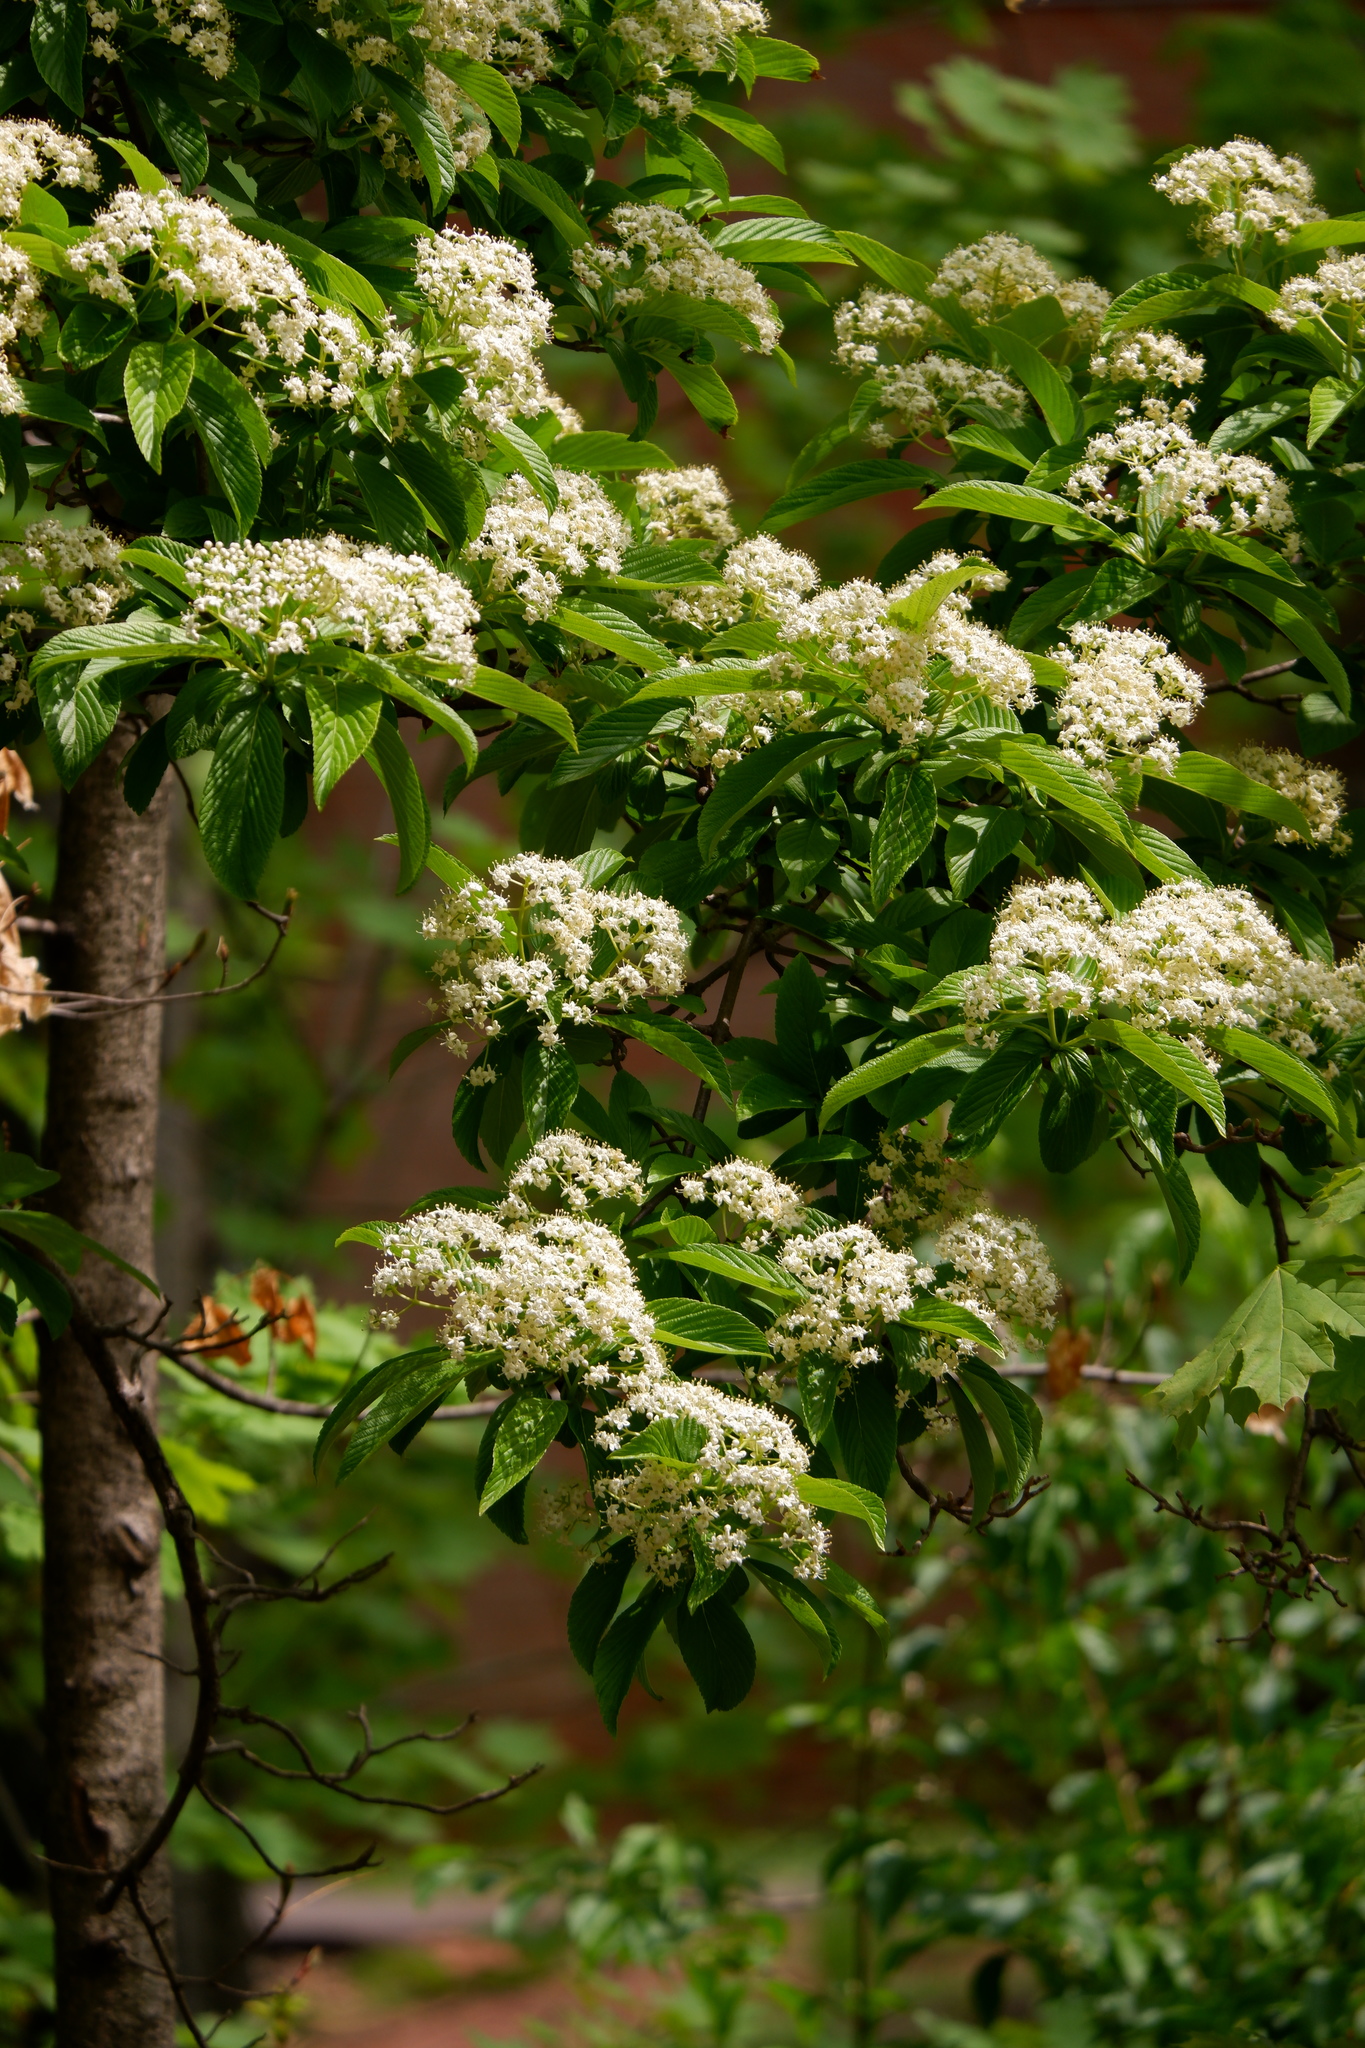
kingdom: Plantae
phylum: Tracheophyta
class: Magnoliopsida
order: Dipsacales
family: Viburnaceae
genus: Viburnum
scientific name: Viburnum sieboldii
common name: Siebold's arrowwood
